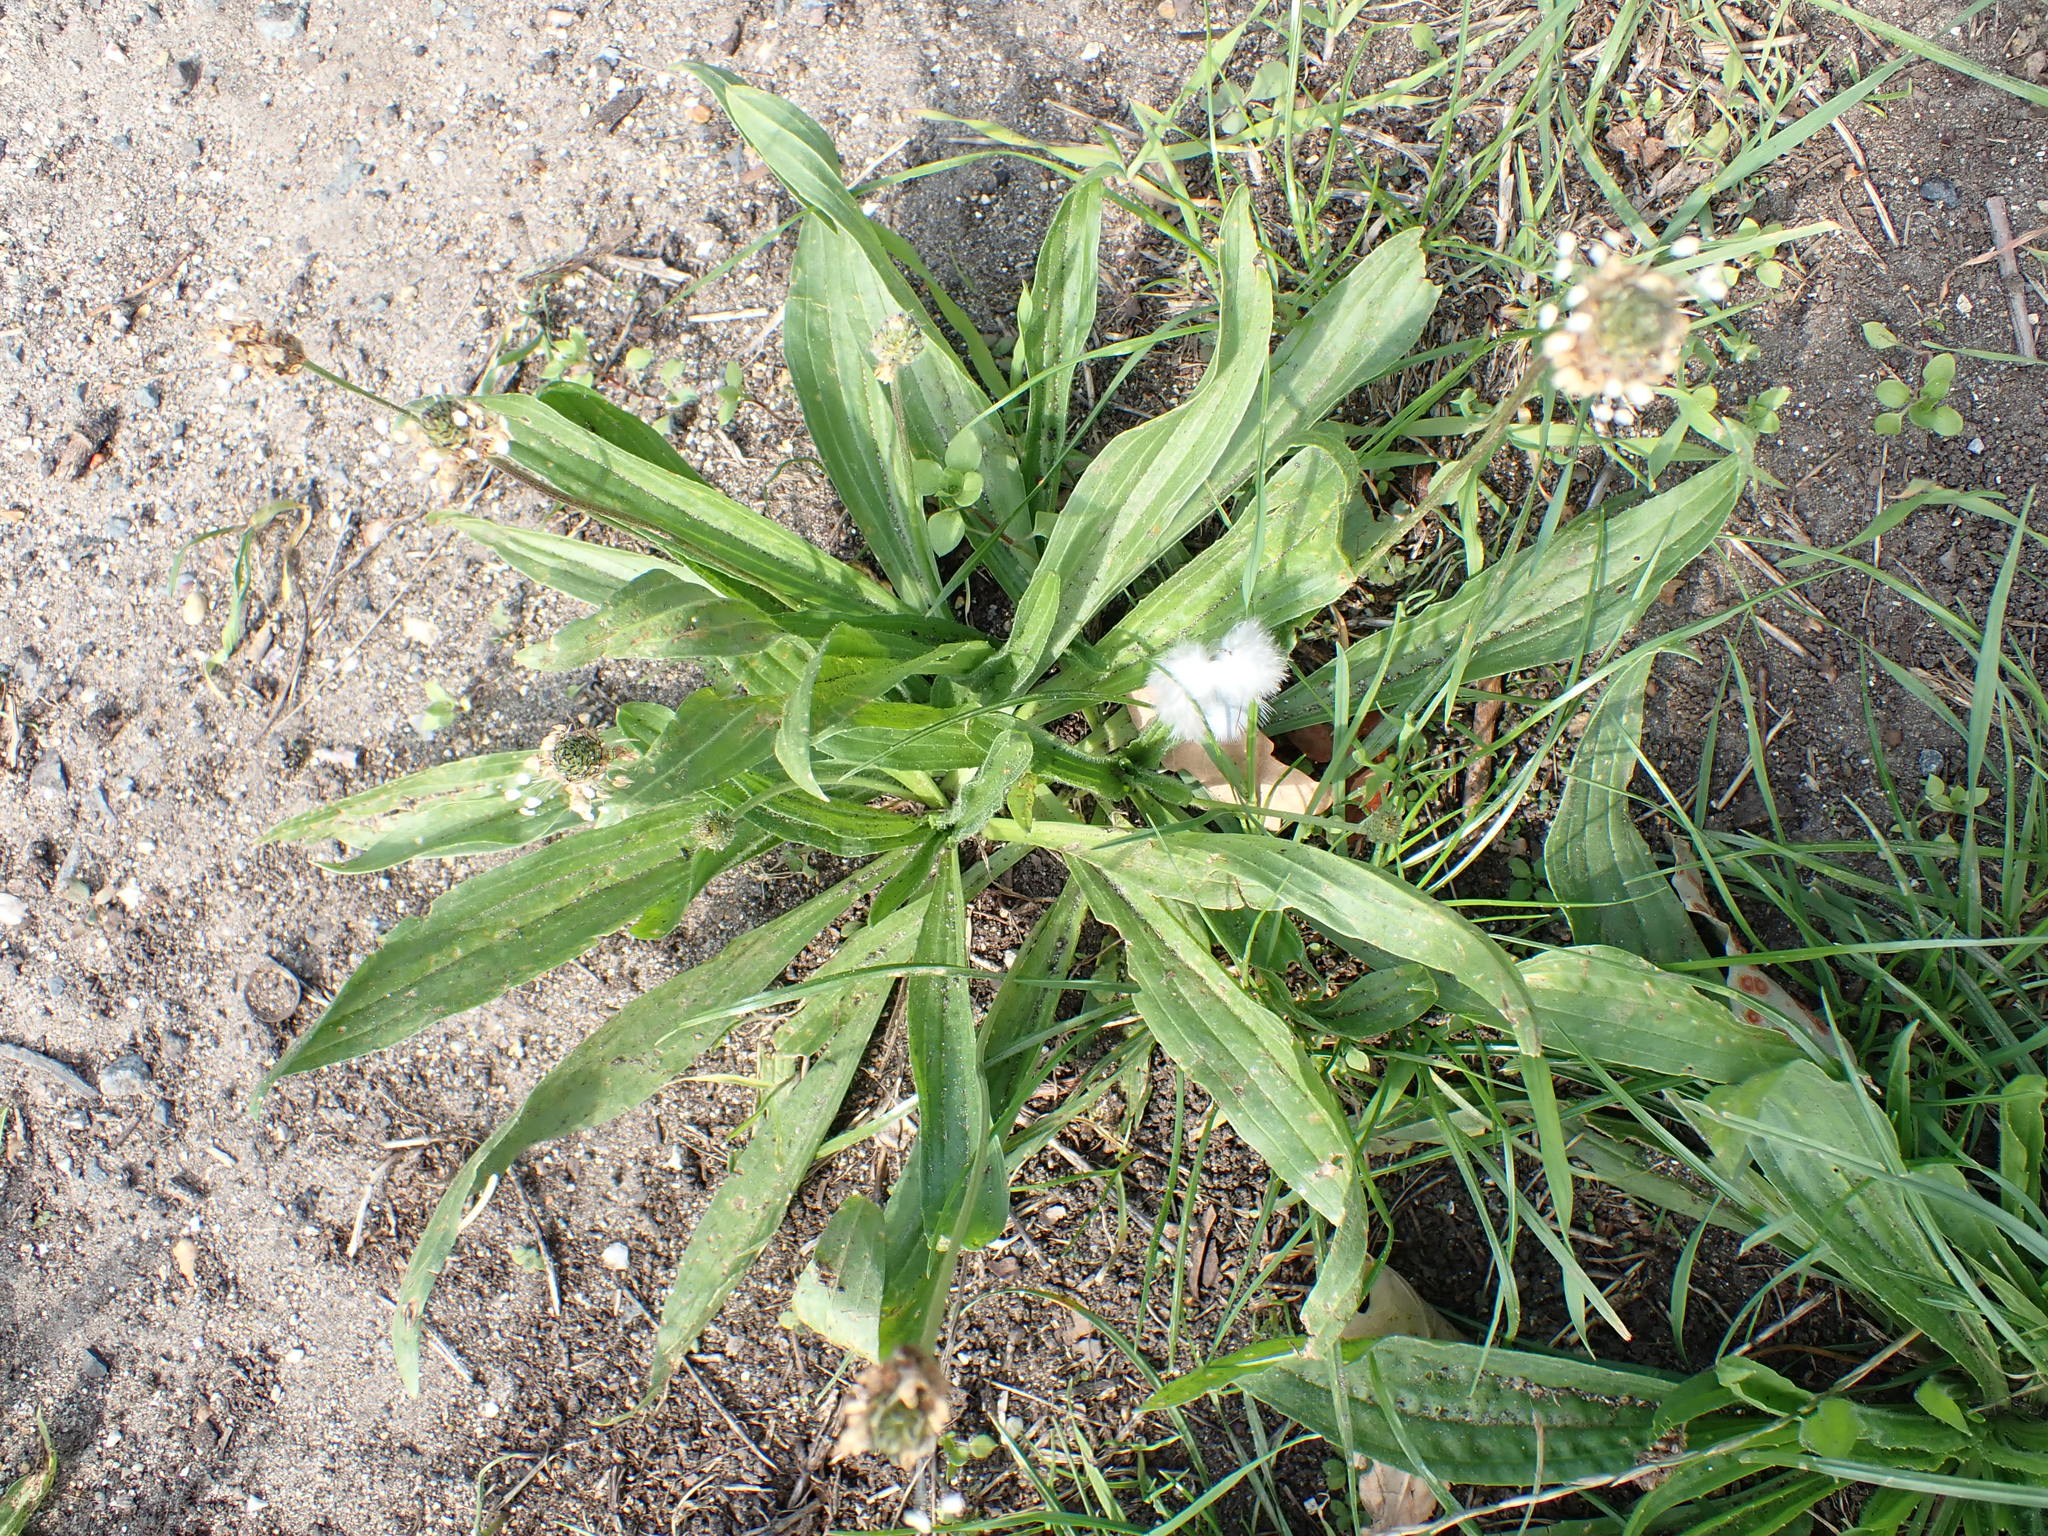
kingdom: Plantae
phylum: Tracheophyta
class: Magnoliopsida
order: Lamiales
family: Plantaginaceae
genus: Plantago
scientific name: Plantago lanceolata
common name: Ribwort plantain
